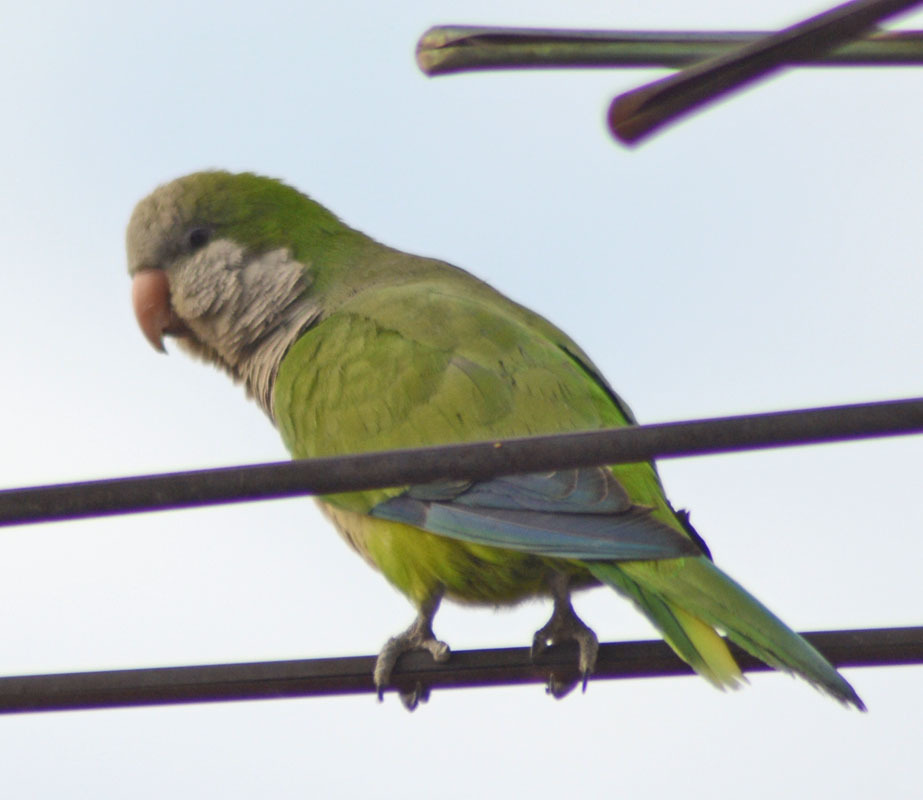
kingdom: Animalia
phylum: Chordata
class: Aves
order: Psittaciformes
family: Psittacidae
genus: Myiopsitta
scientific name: Myiopsitta monachus
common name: Monk parakeet
